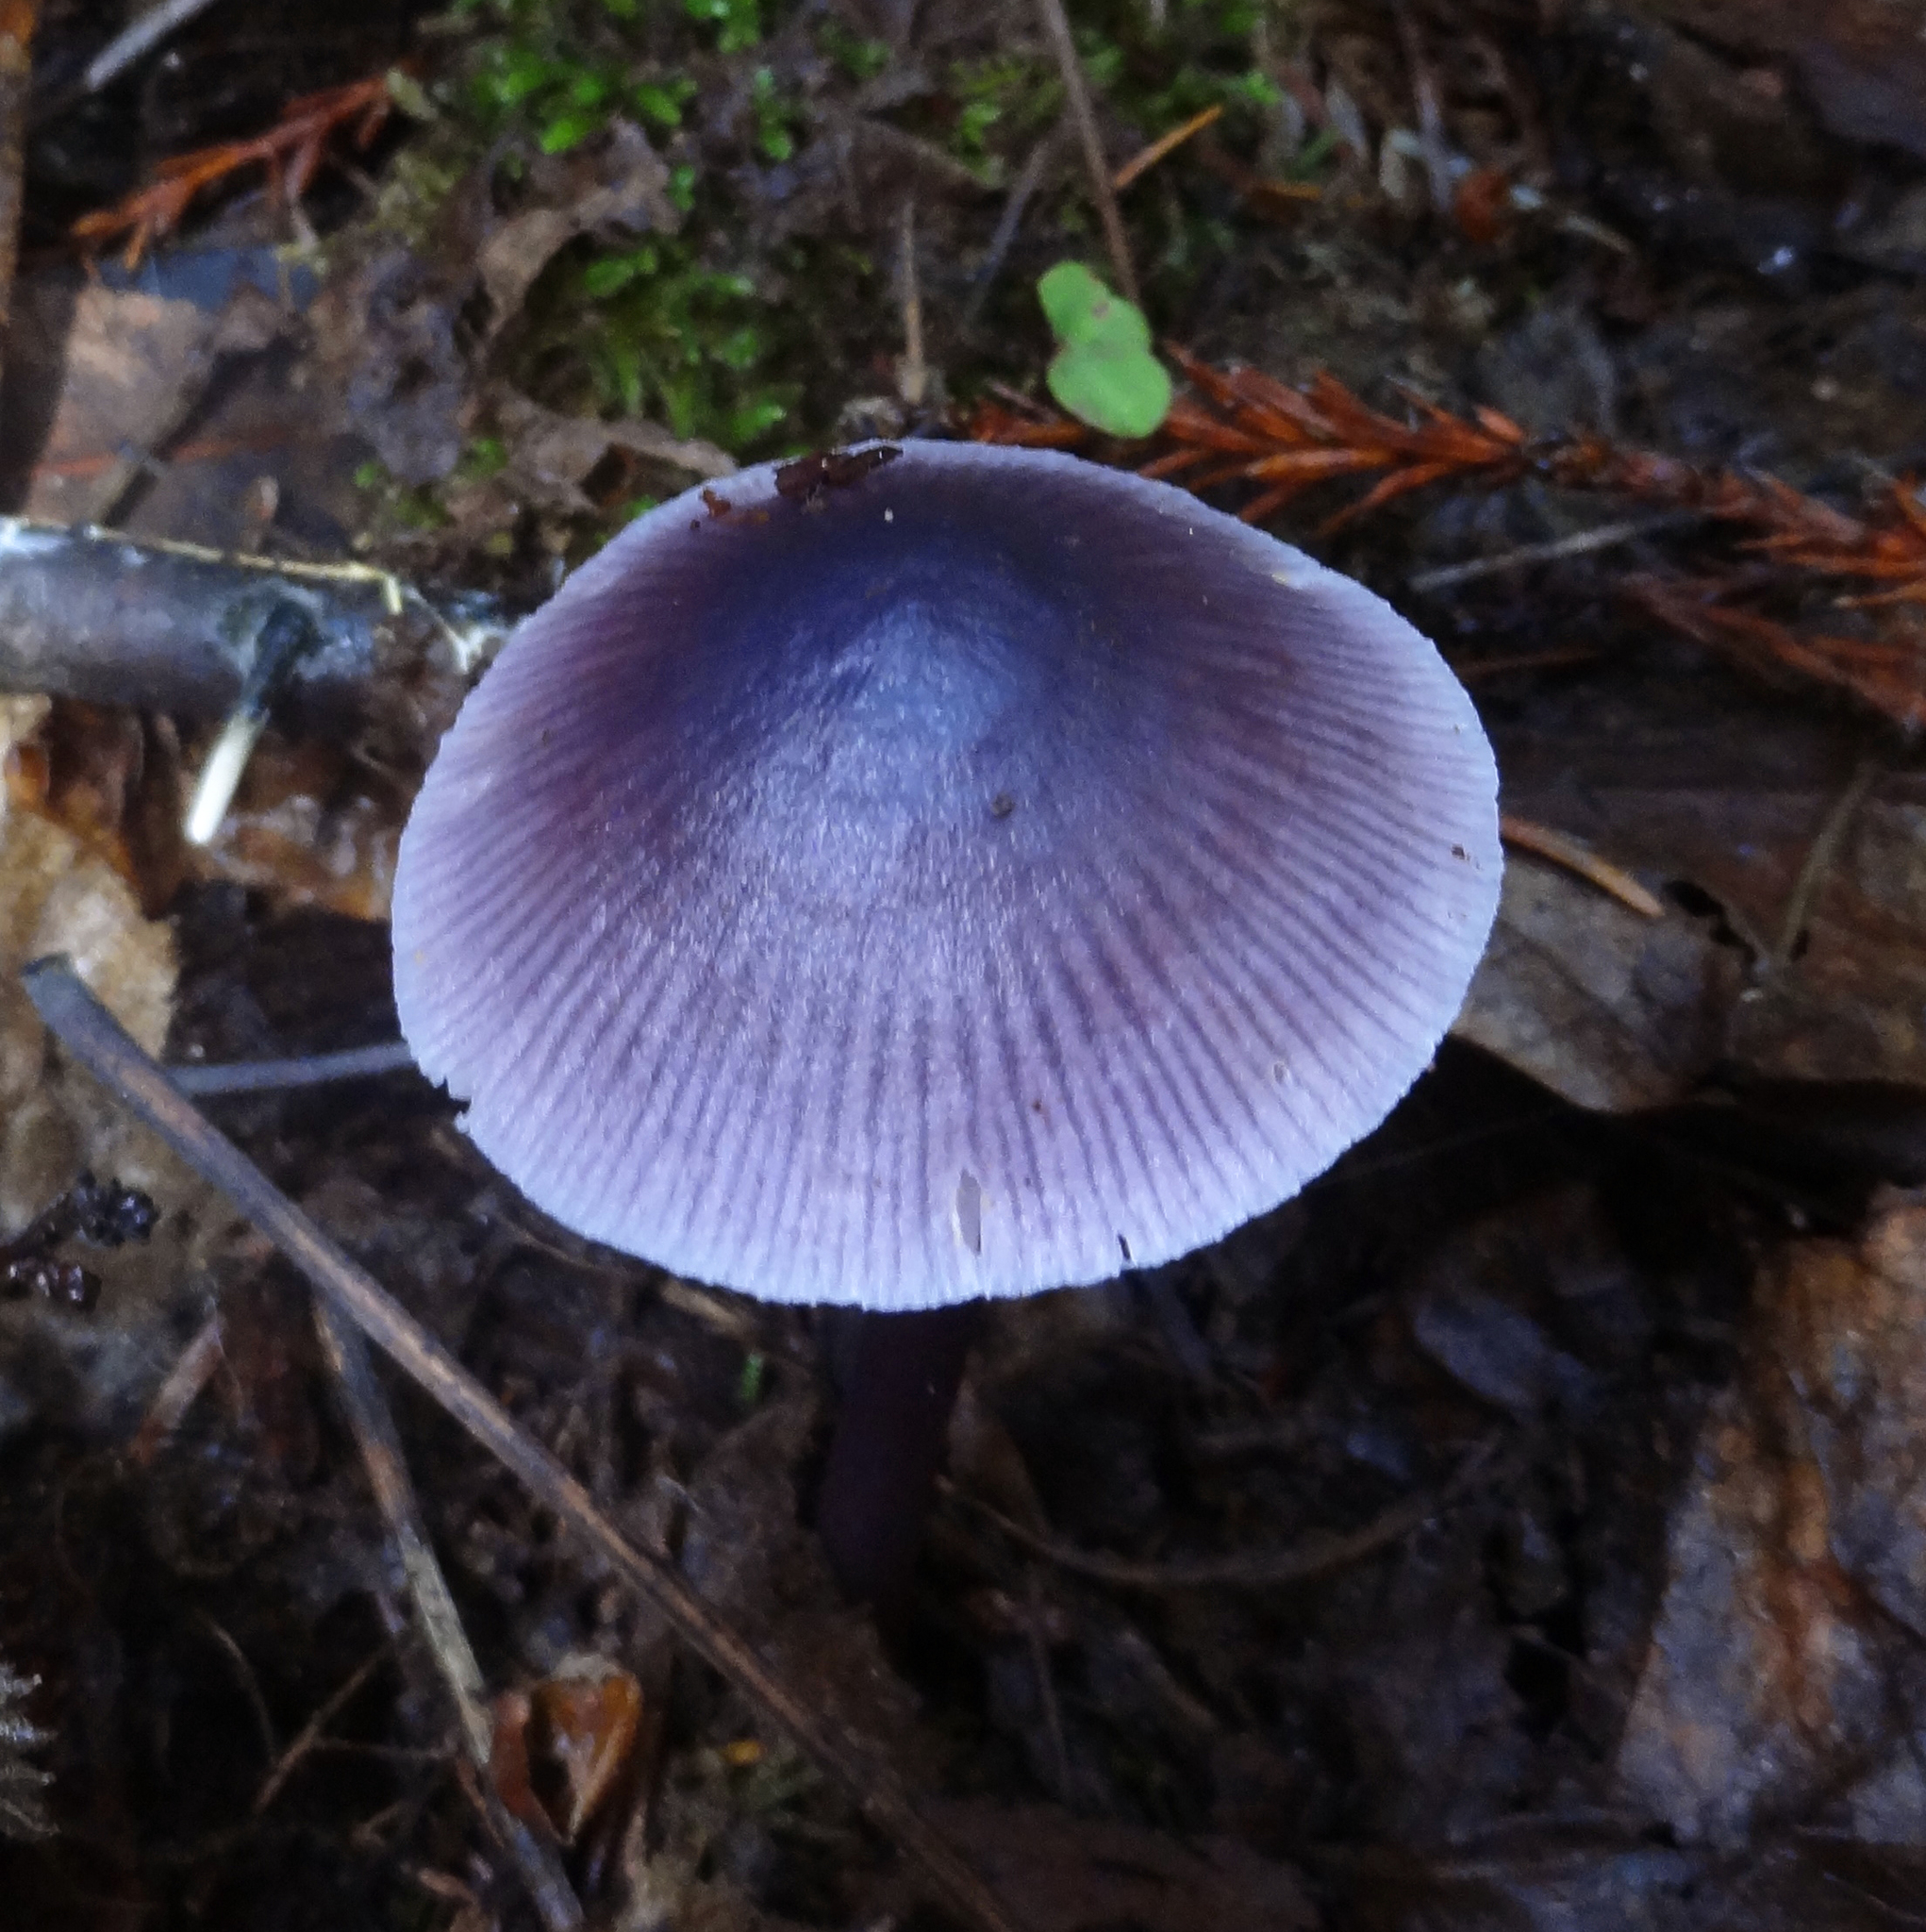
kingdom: Fungi
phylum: Basidiomycota
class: Agaricomycetes
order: Agaricales
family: Mycenaceae
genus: Mycena
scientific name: Mycena pura
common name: Lilac bonnet
